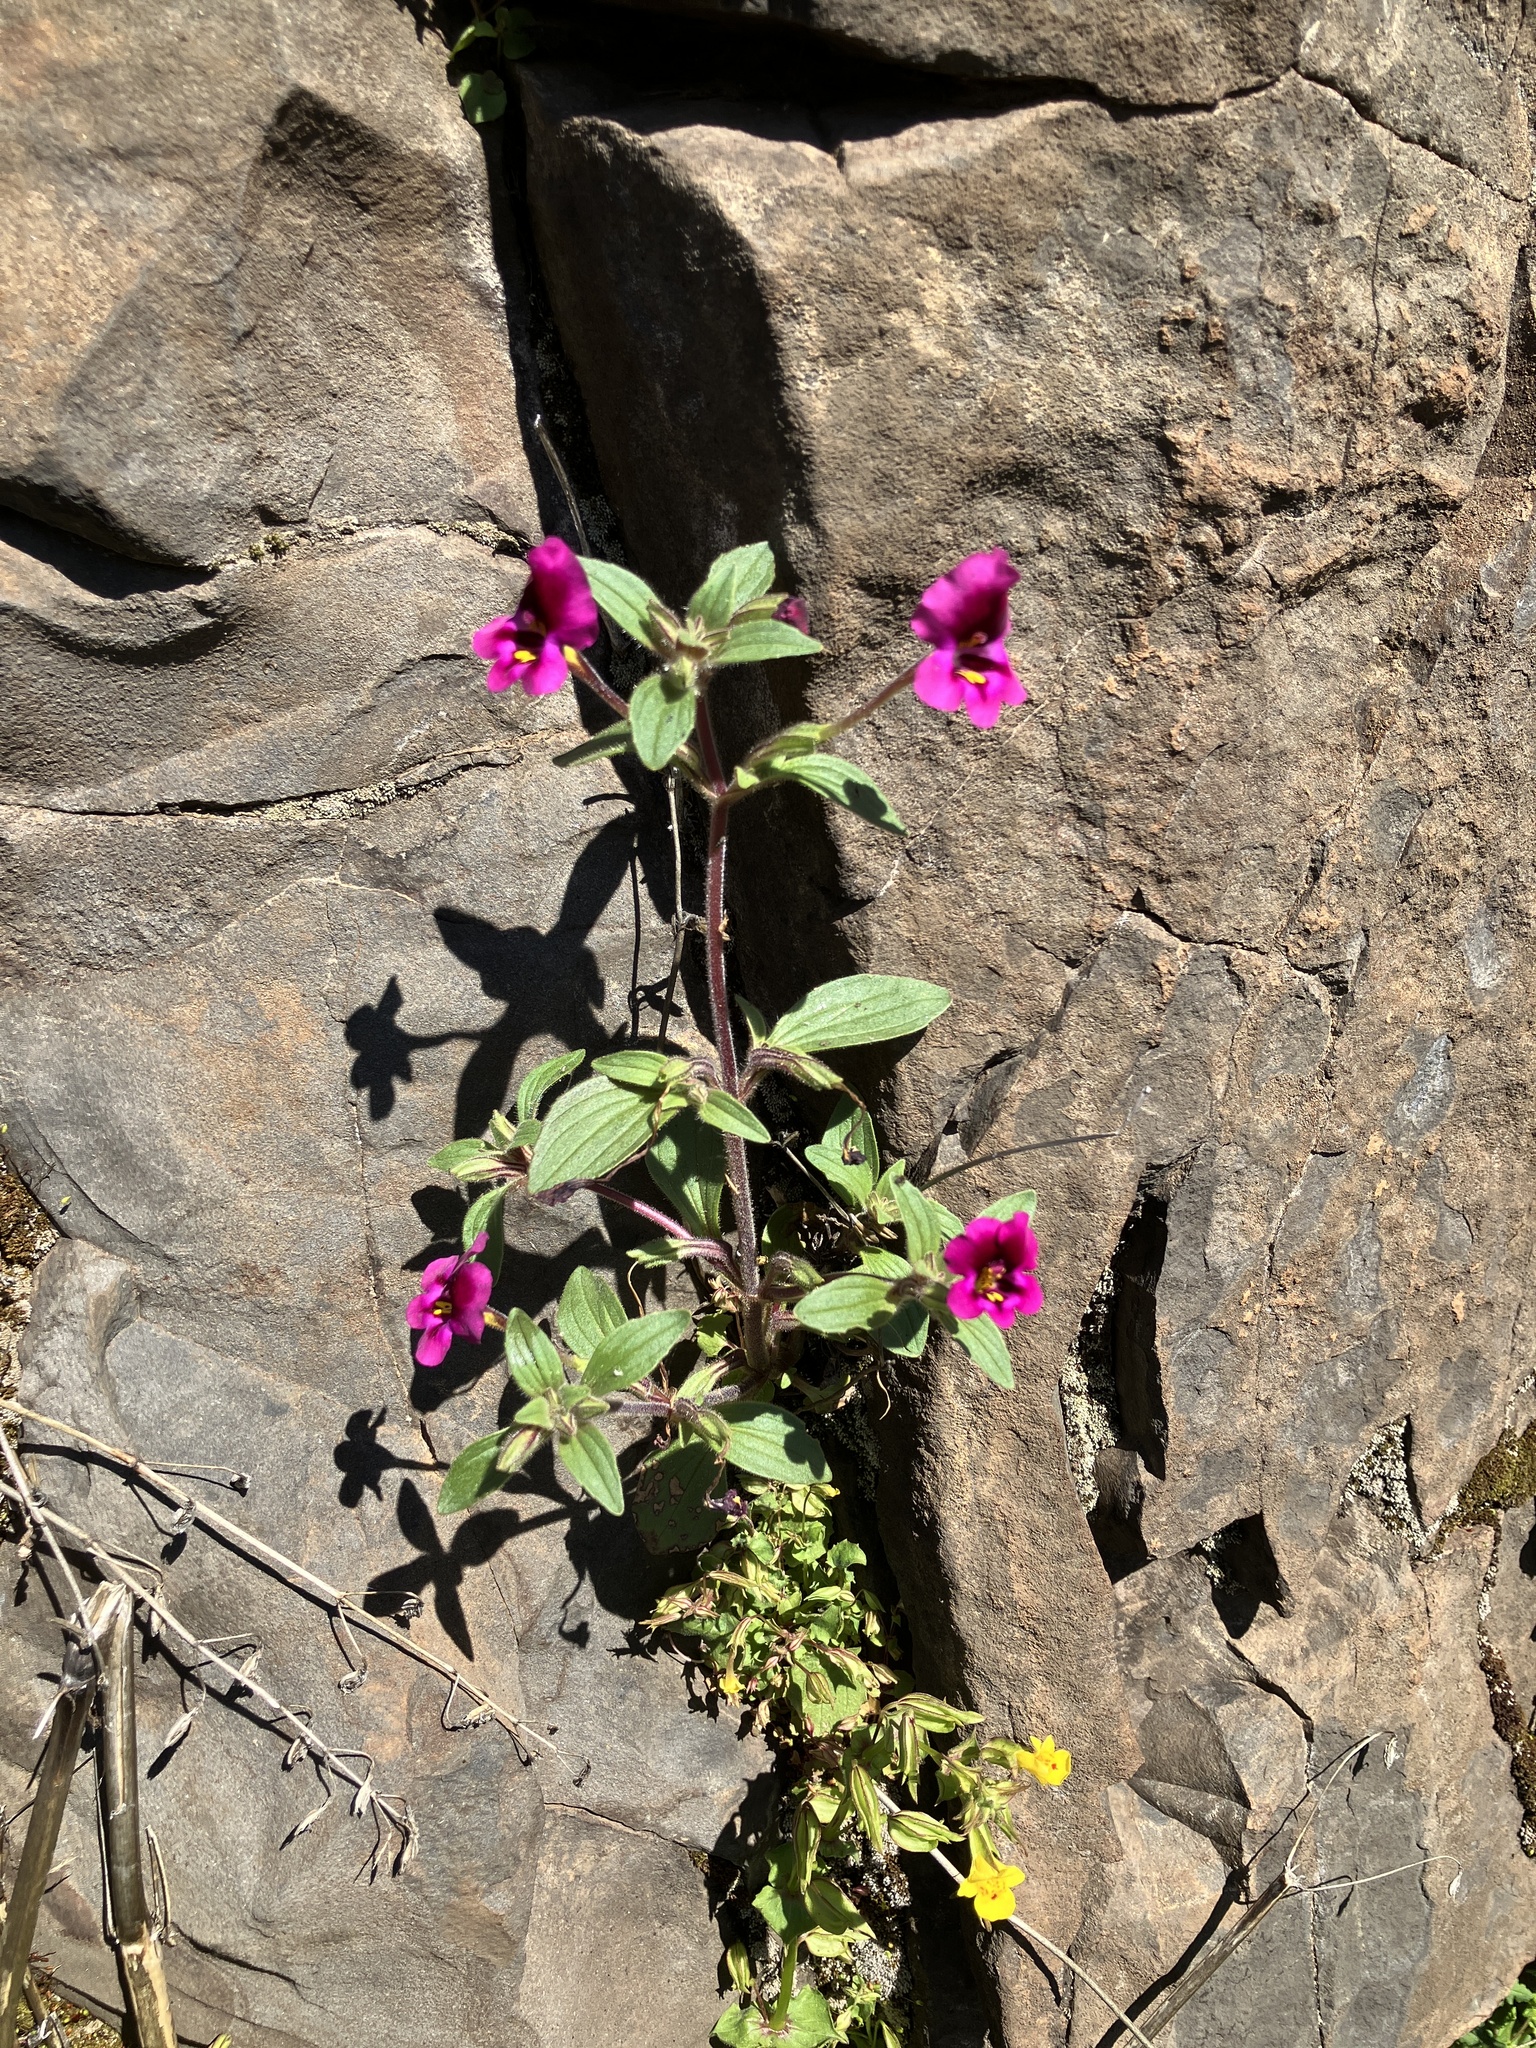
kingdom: Plantae
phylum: Tracheophyta
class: Magnoliopsida
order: Lamiales
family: Phrymaceae
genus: Diplacus
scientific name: Diplacus kelloggii
